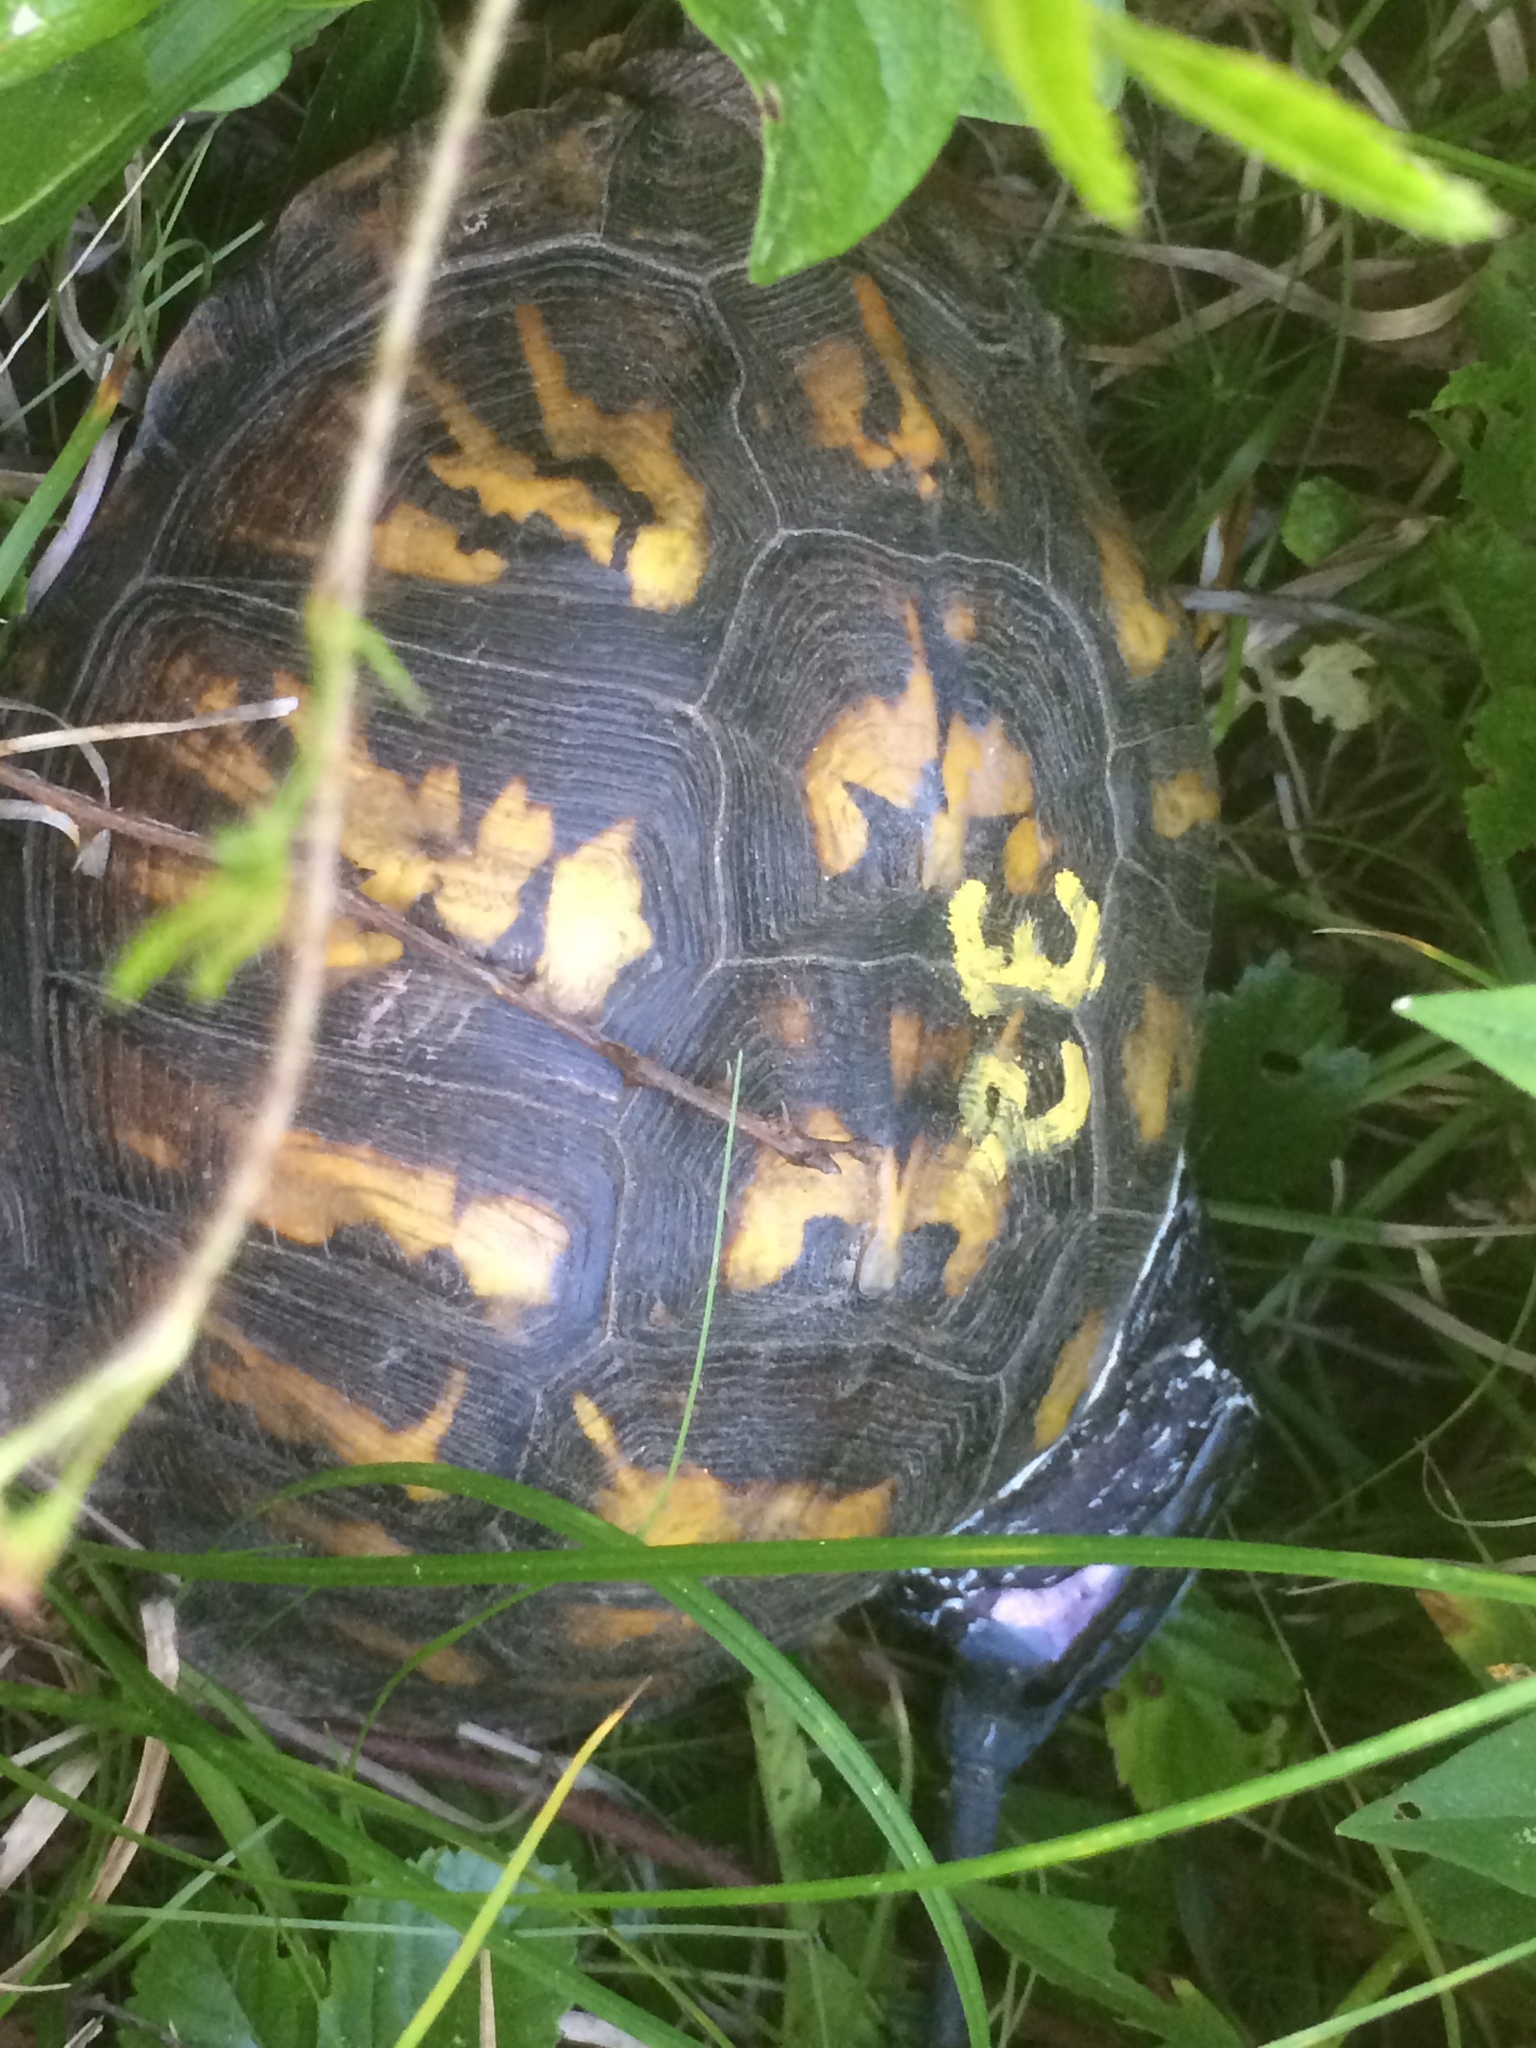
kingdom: Animalia
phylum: Chordata
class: Testudines
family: Emydidae
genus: Terrapene
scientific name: Terrapene carolina
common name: Common box turtle
